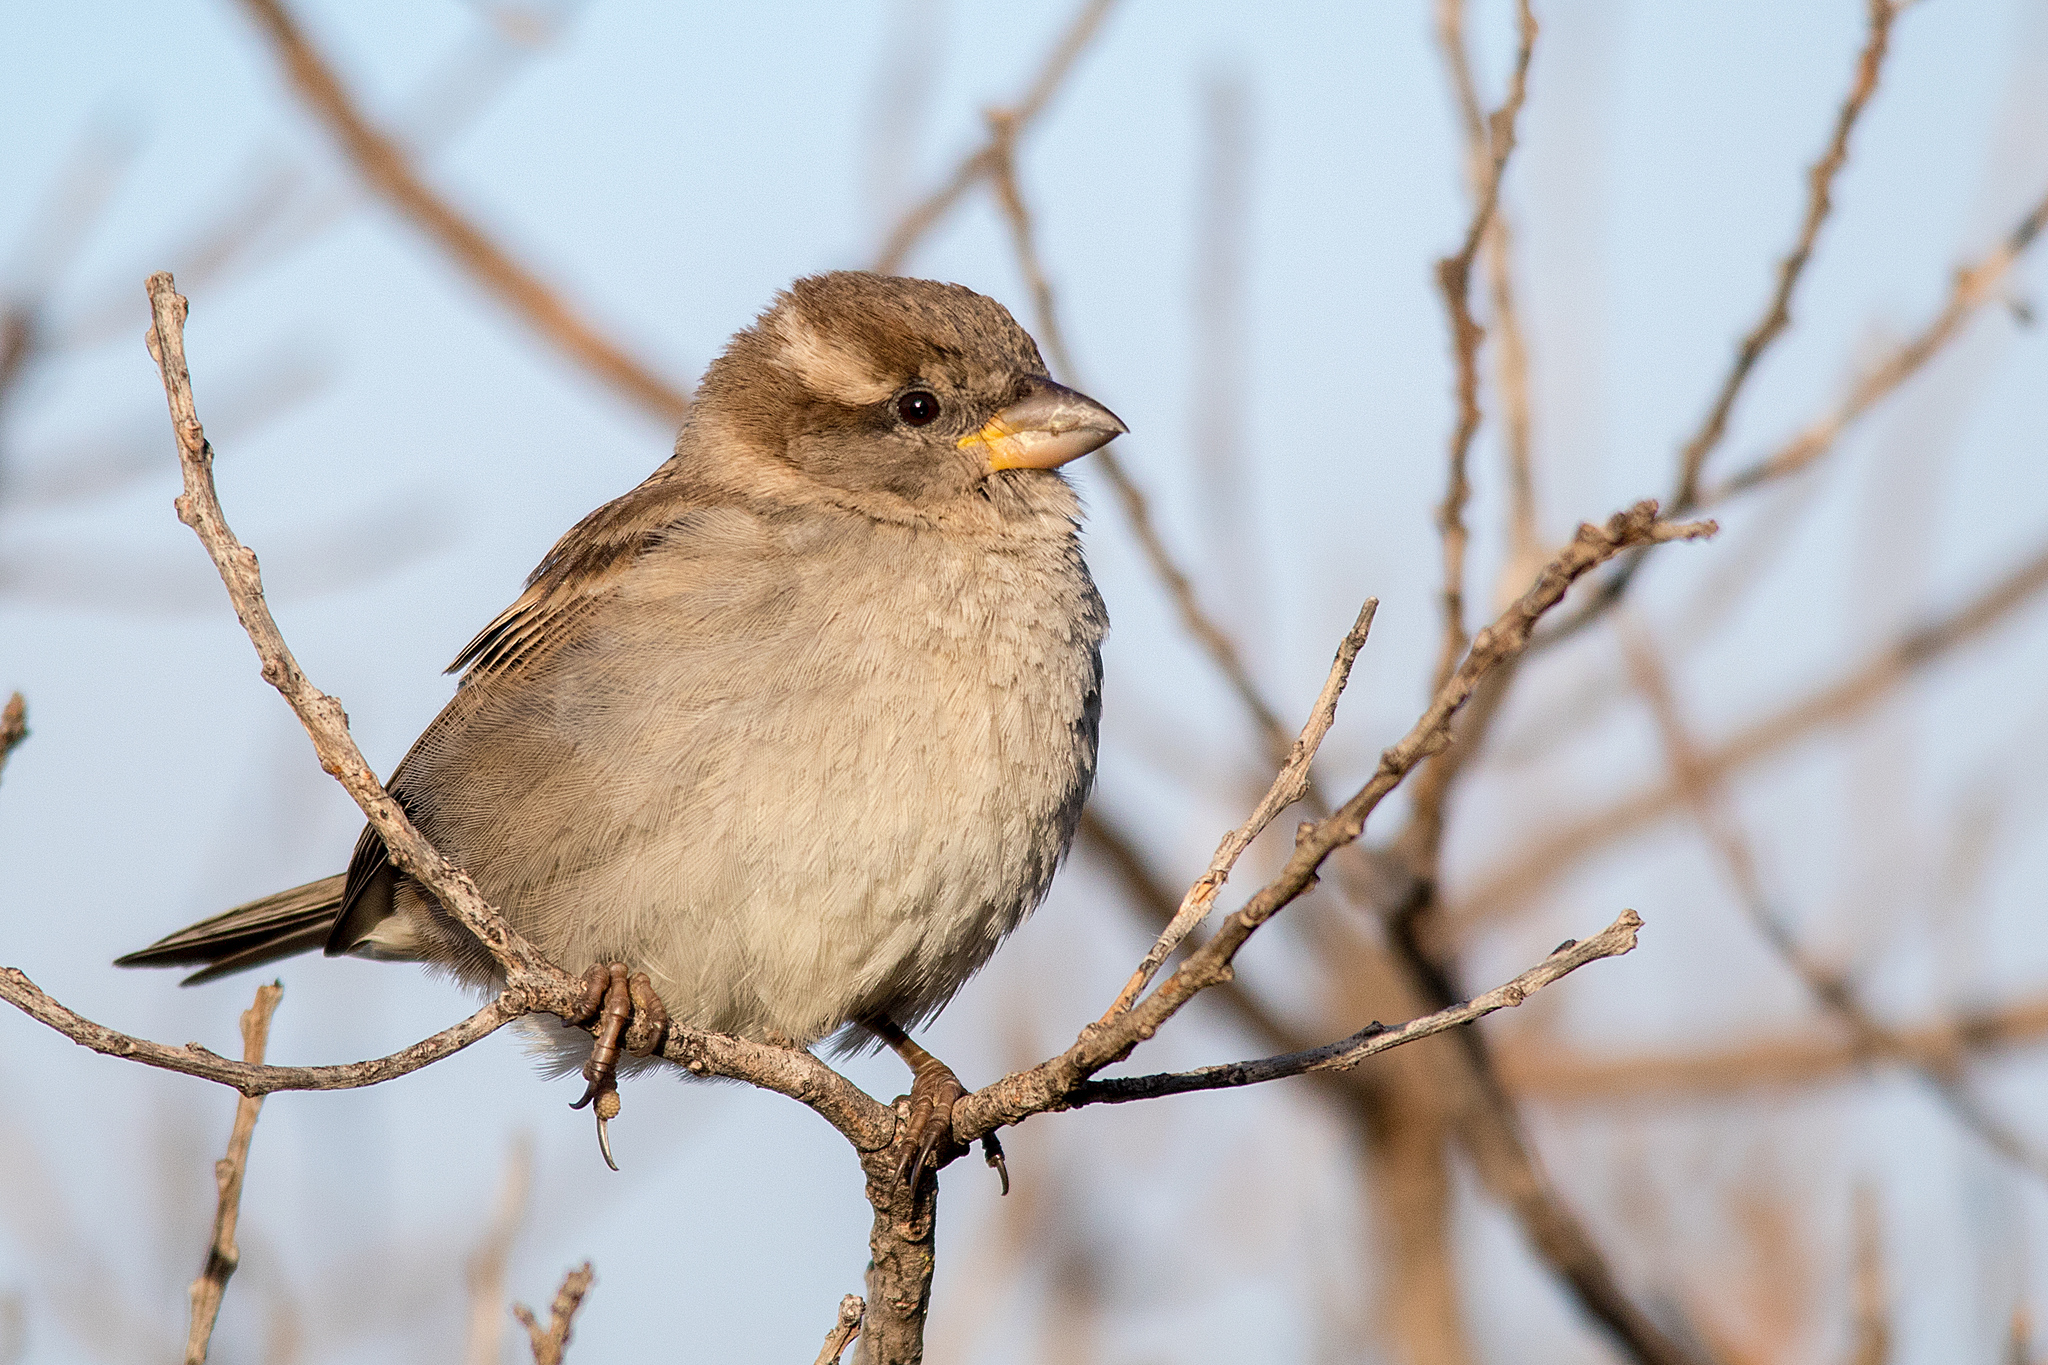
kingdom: Animalia
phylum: Chordata
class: Aves
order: Passeriformes
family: Passeridae
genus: Passer
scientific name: Passer domesticus
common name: House sparrow
